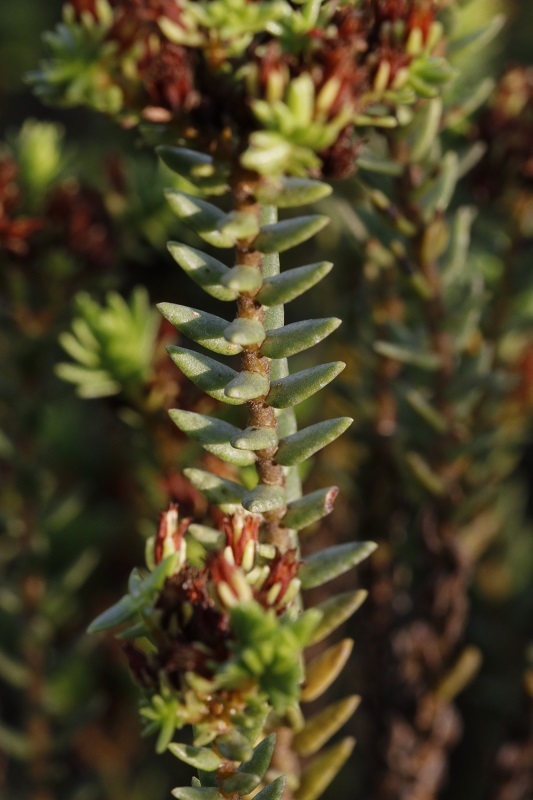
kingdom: Plantae
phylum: Tracheophyta
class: Magnoliopsida
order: Saxifragales
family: Crassulaceae
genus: Crassula
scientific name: Crassula ericoides
